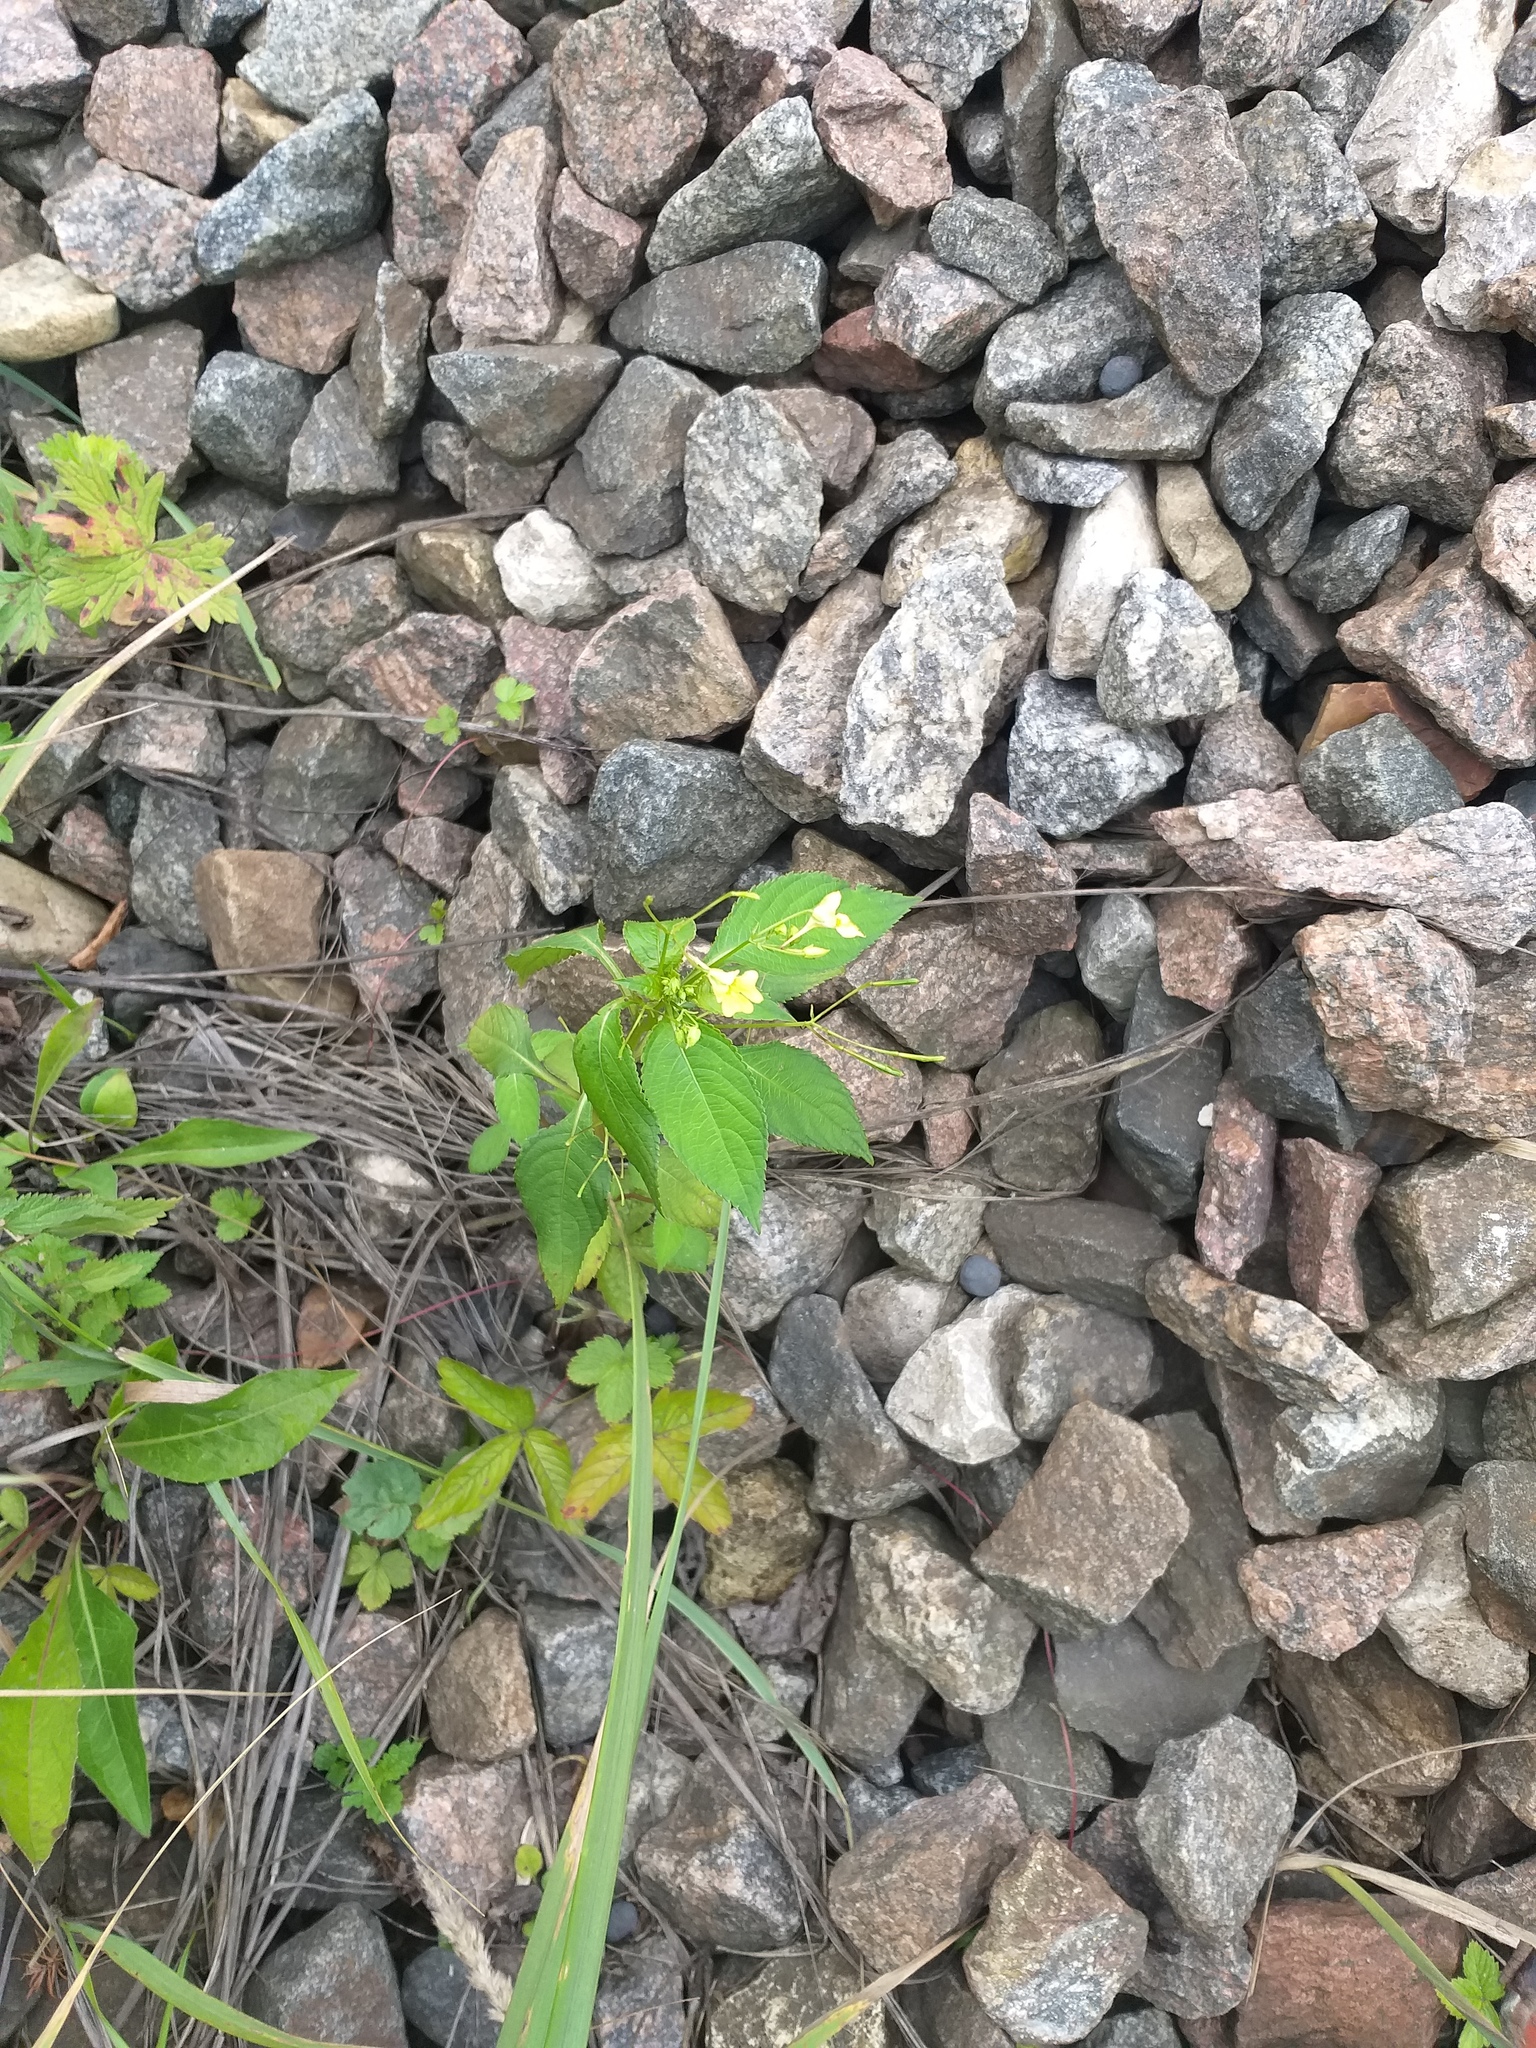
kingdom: Plantae
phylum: Tracheophyta
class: Magnoliopsida
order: Ericales
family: Balsaminaceae
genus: Impatiens
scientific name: Impatiens parviflora
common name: Small balsam
